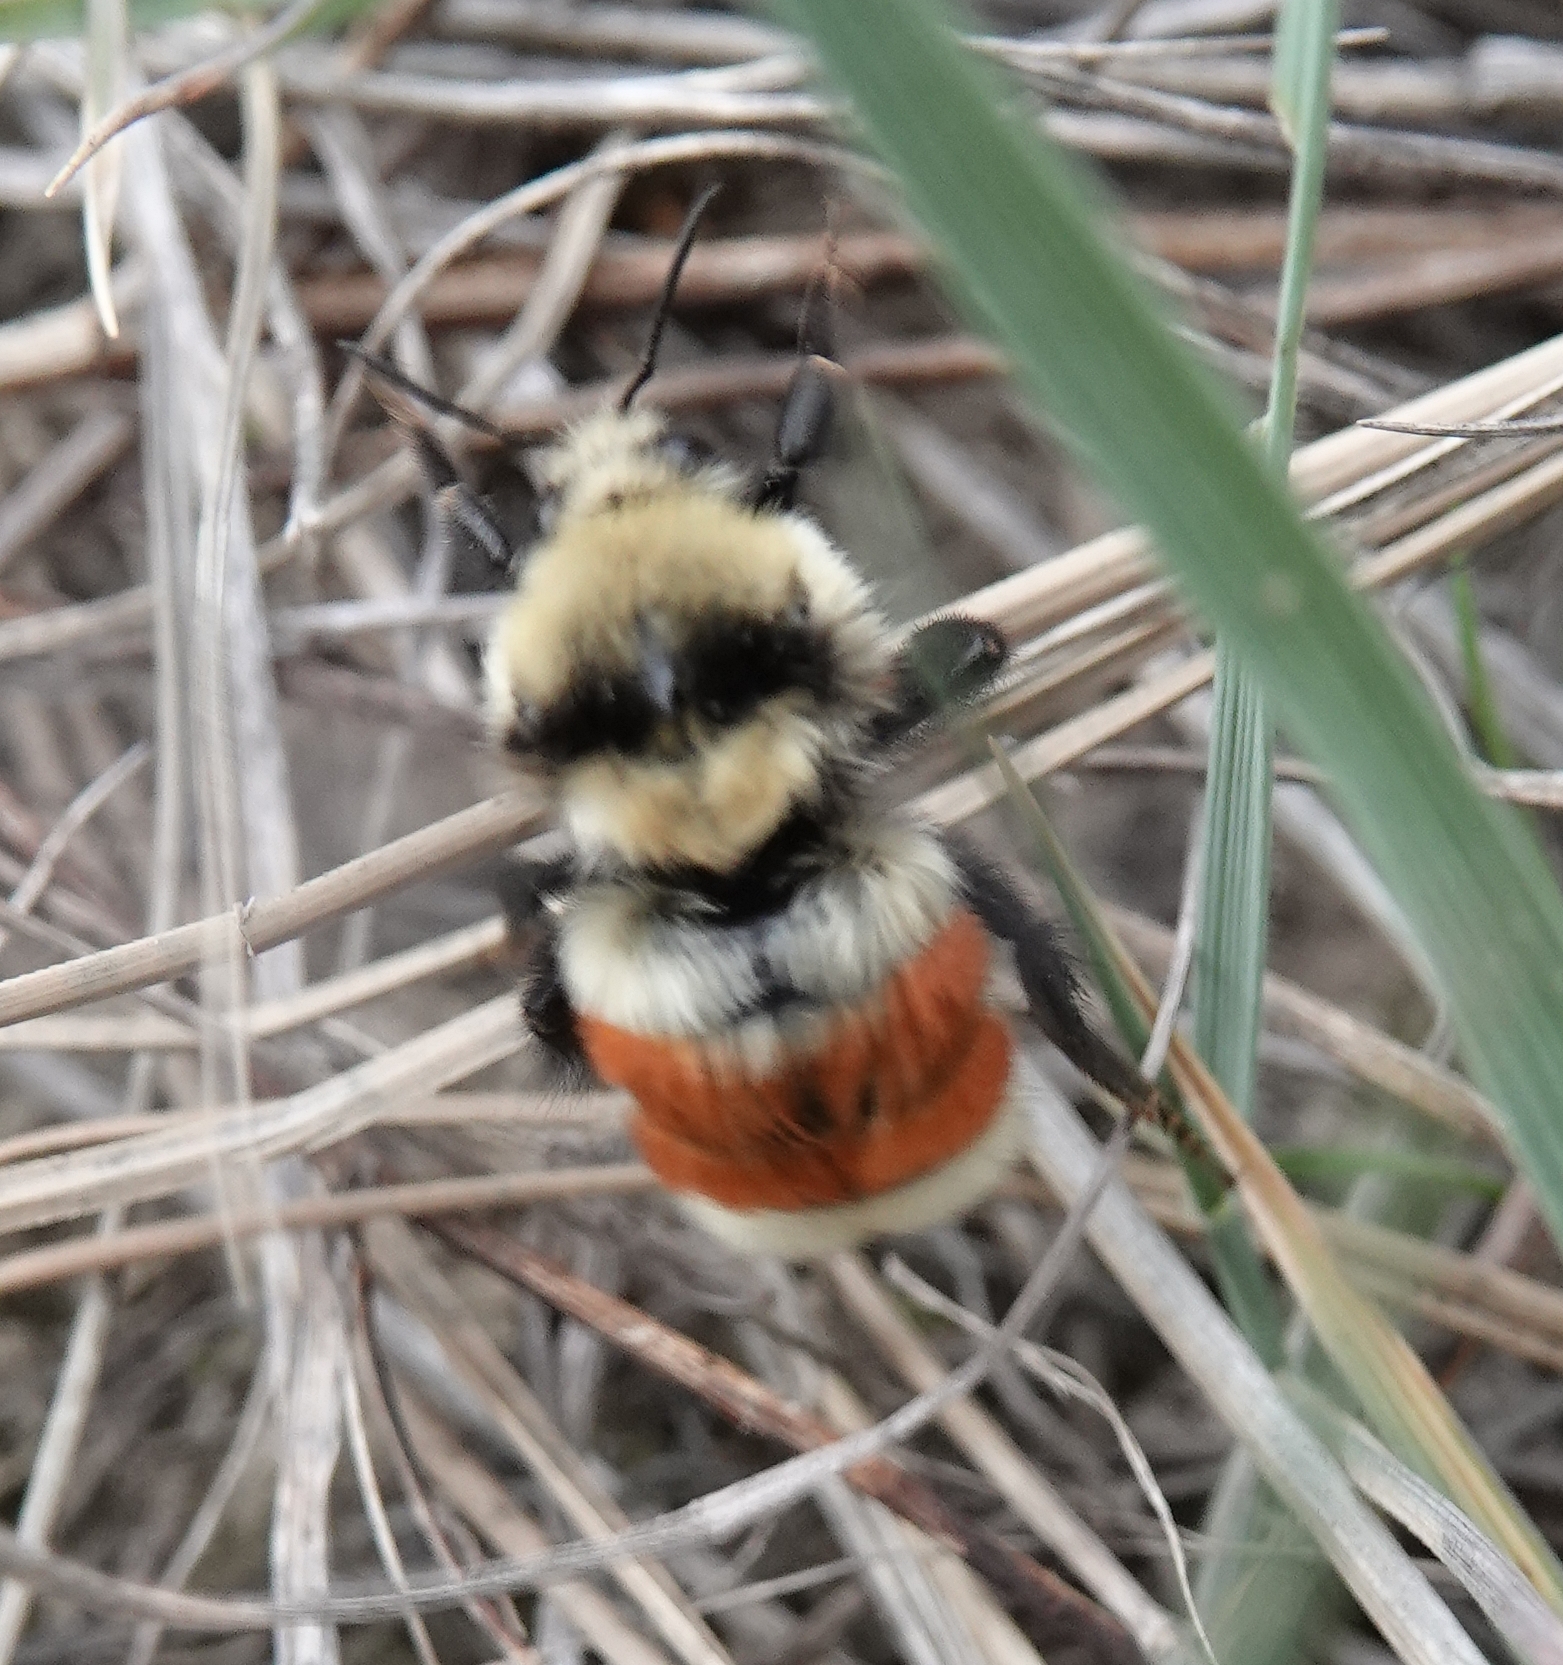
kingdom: Animalia
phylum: Arthropoda
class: Insecta
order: Hymenoptera
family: Apidae
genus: Bombus
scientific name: Bombus huntii
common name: Hunt bumble bee
